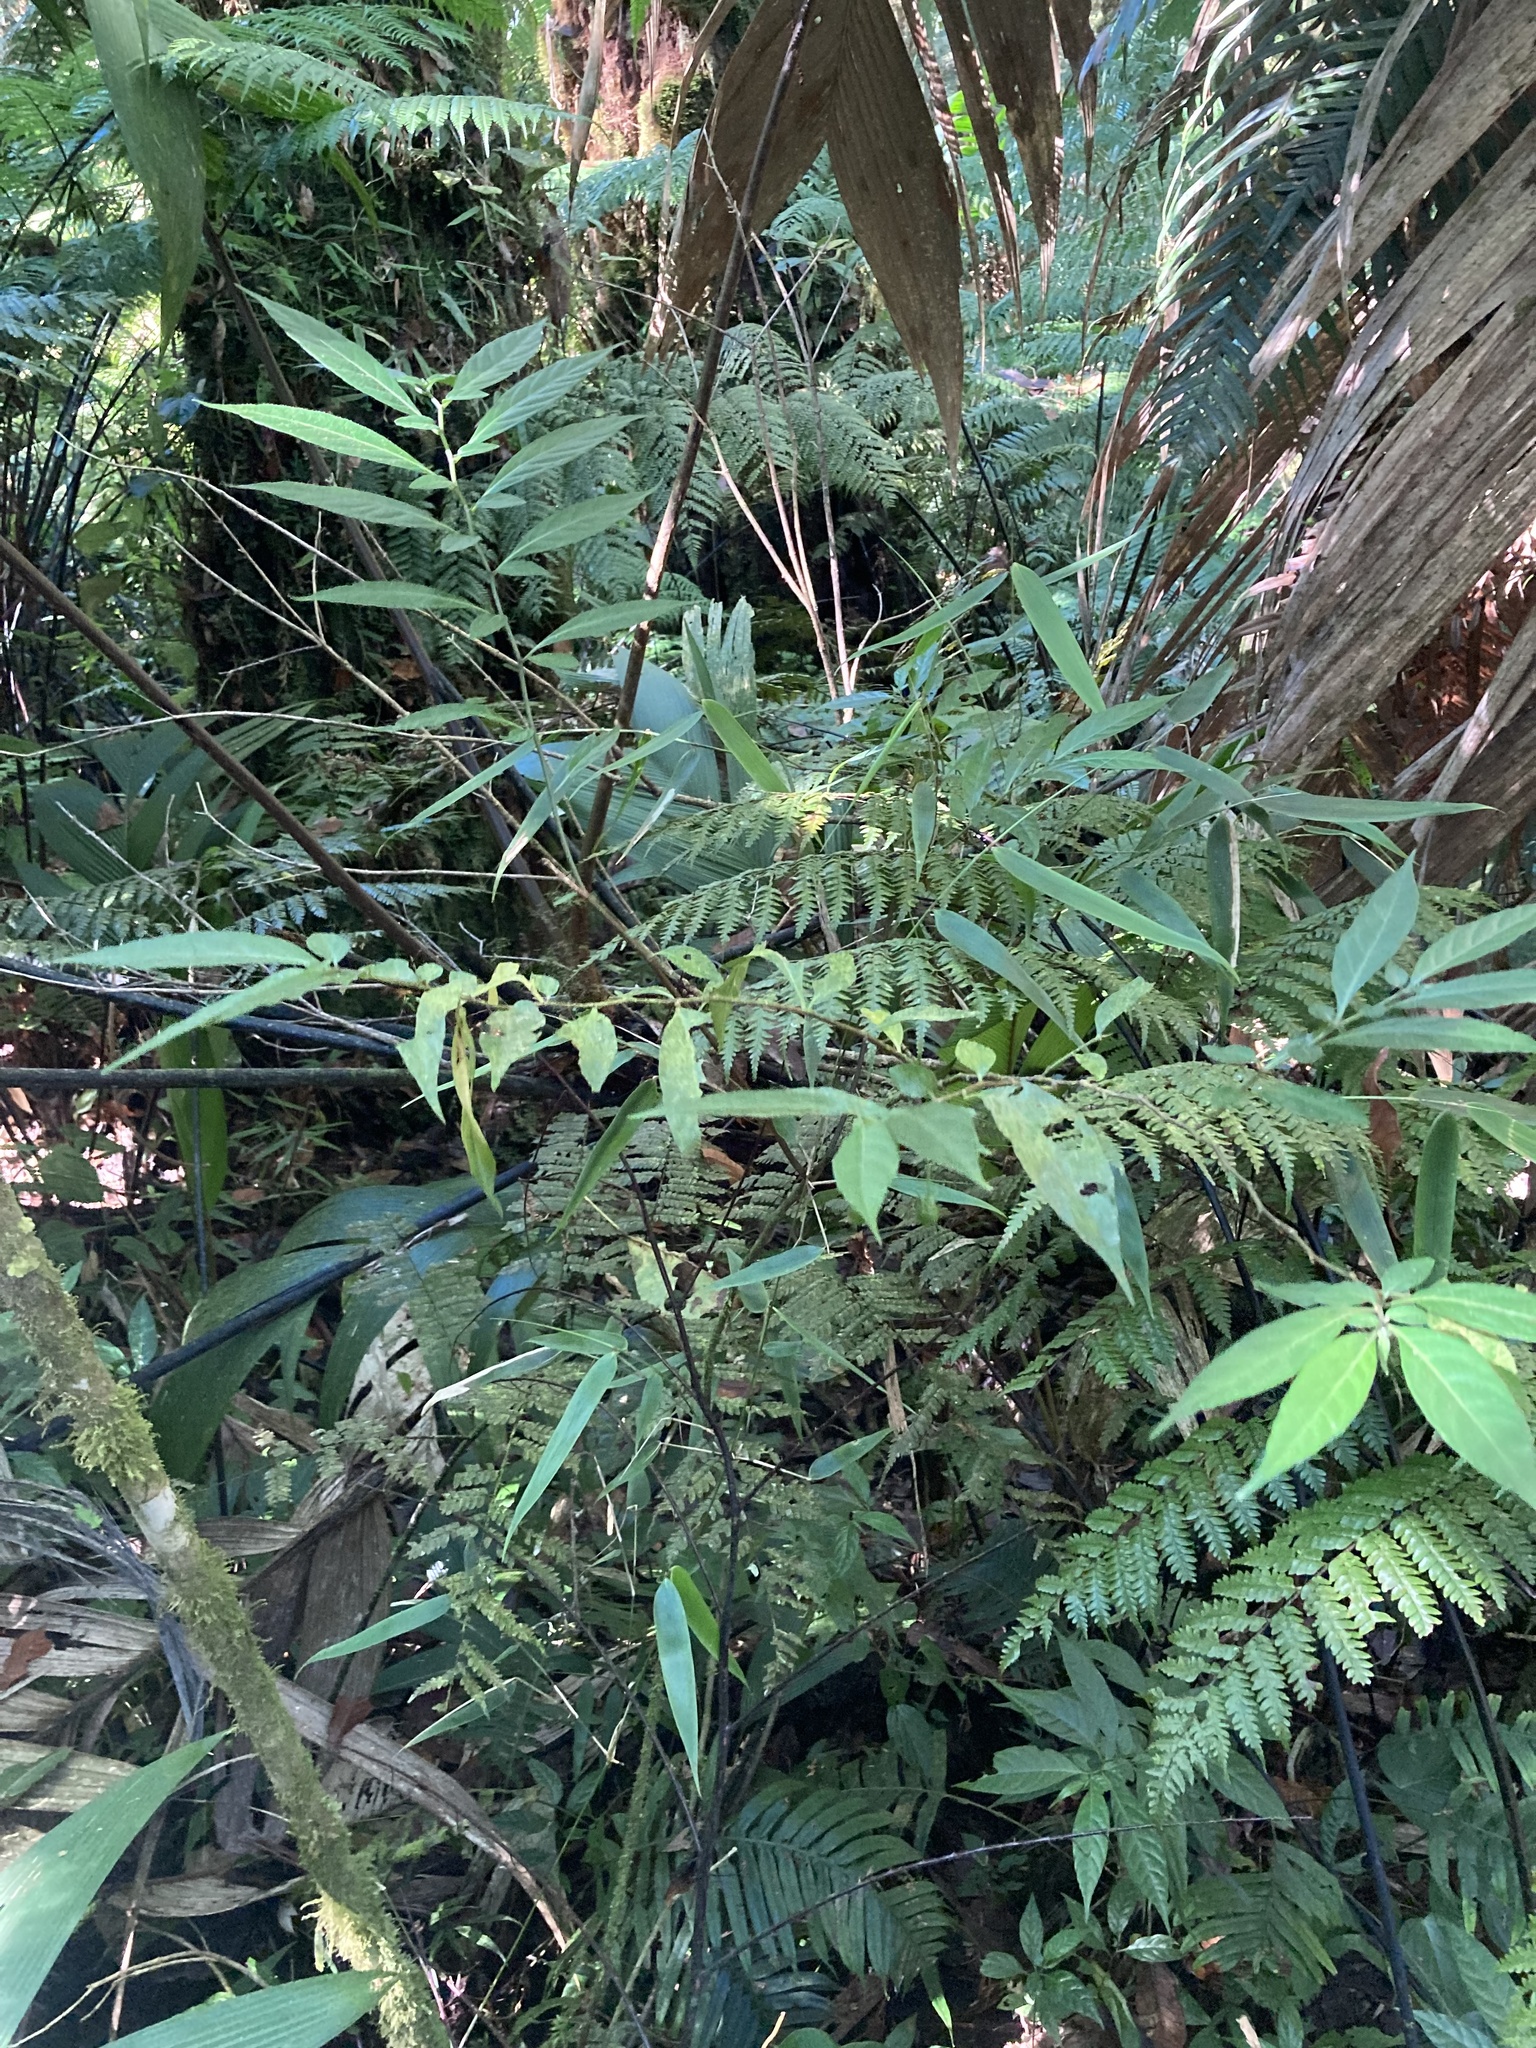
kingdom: Plantae
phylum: Tracheophyta
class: Magnoliopsida
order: Solanales
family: Solanaceae
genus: Capsicum
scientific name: Capsicum lanceolatum
